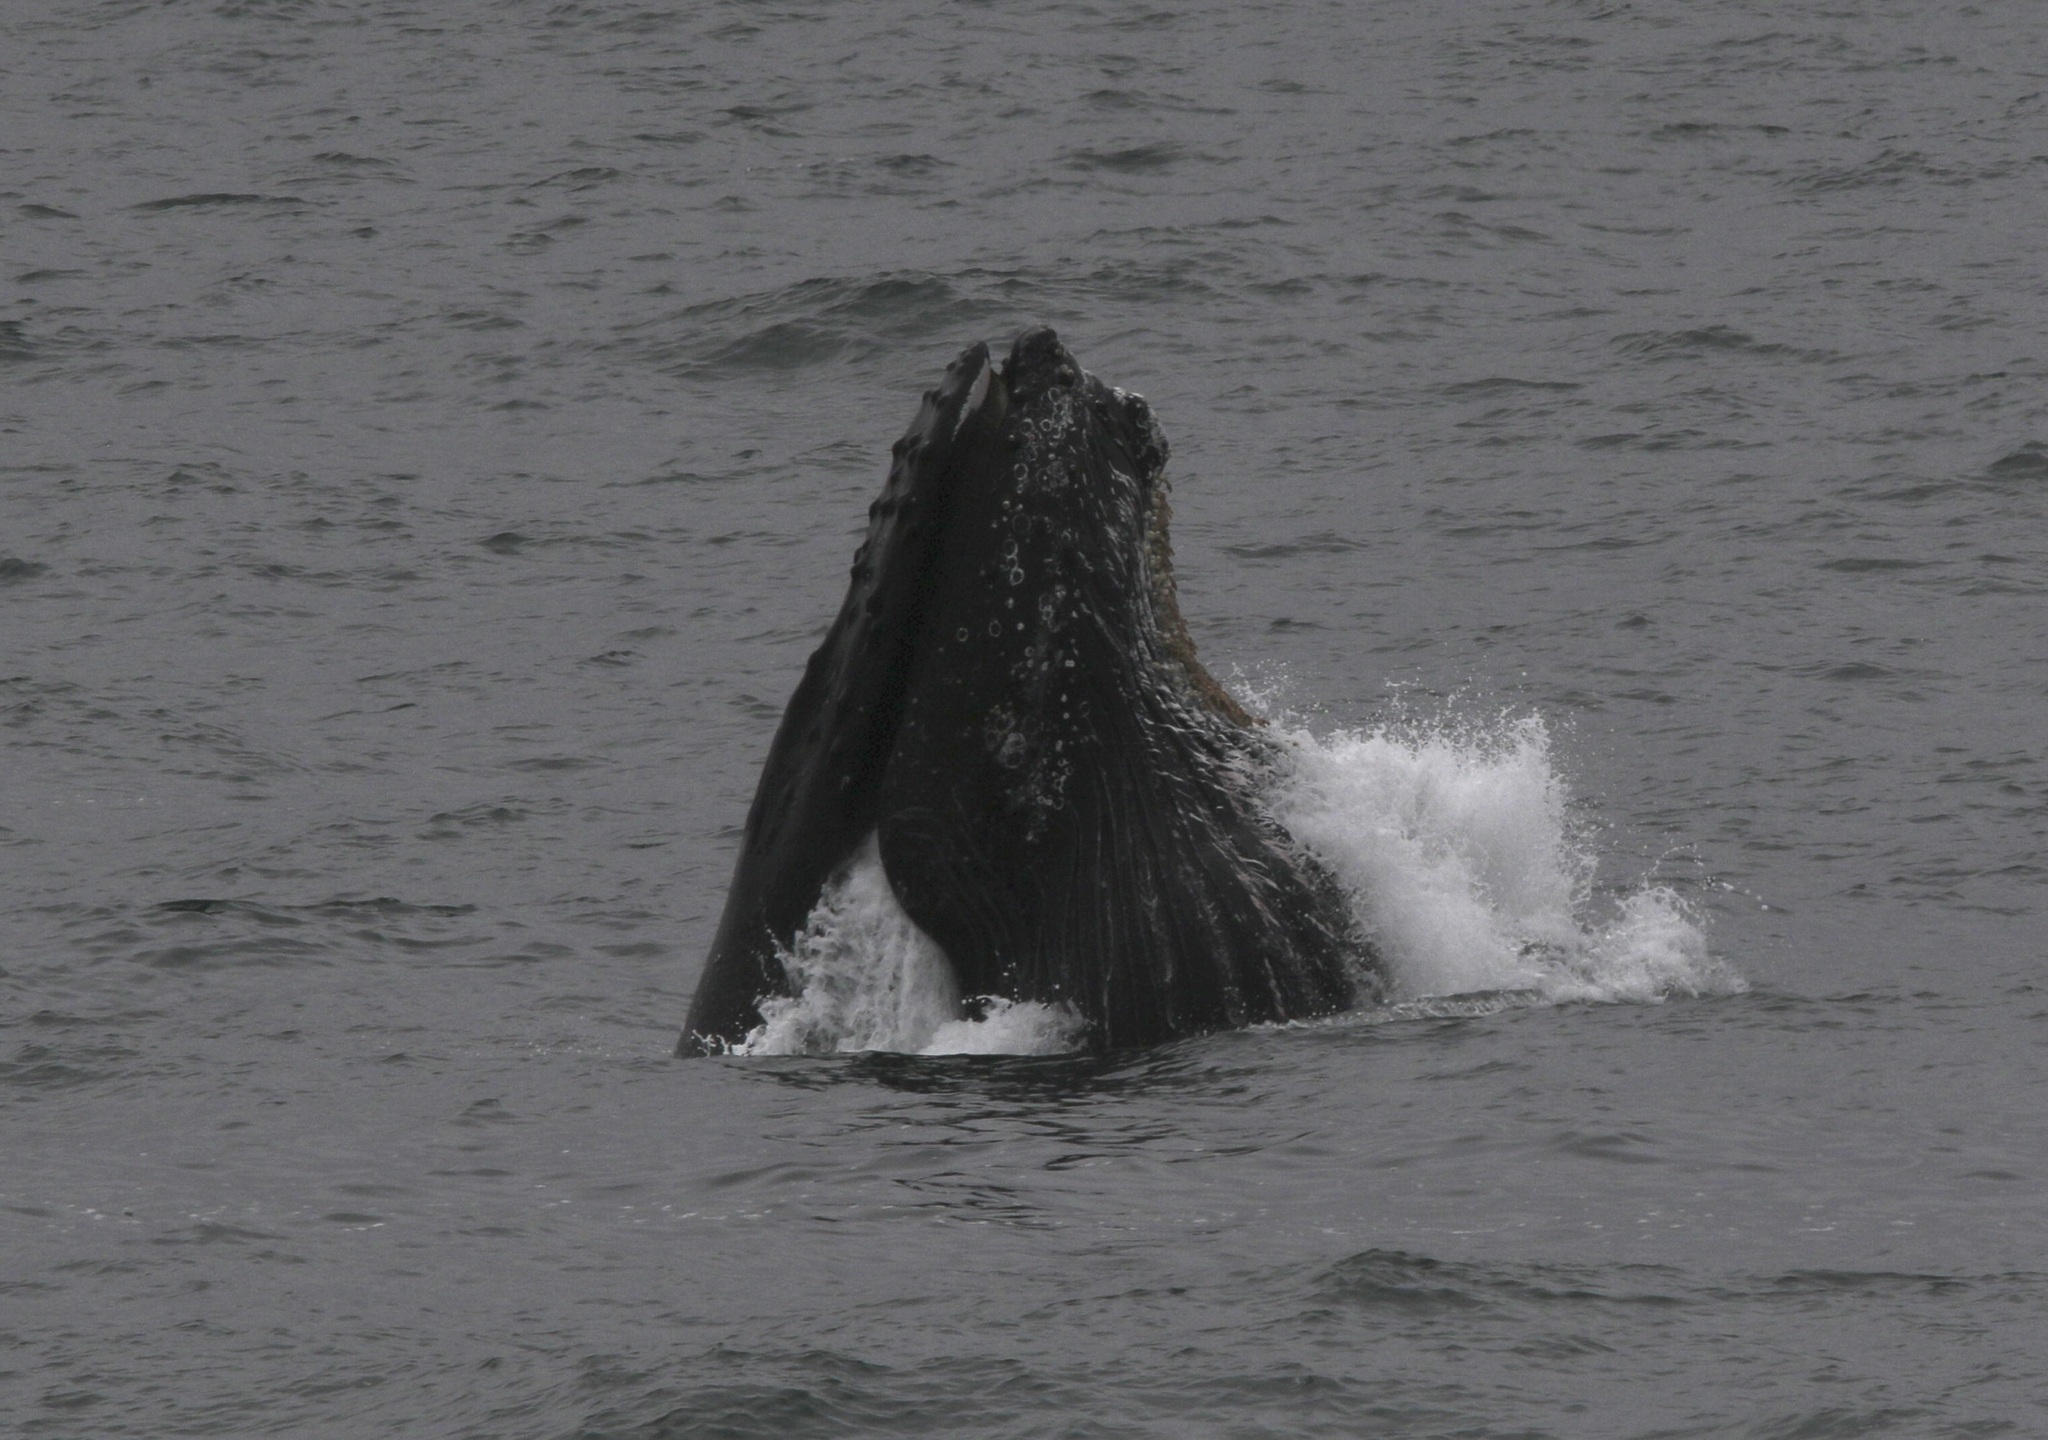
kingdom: Animalia
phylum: Chordata
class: Mammalia
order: Cetacea
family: Balaenopteridae
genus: Megaptera
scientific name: Megaptera novaeangliae
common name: Humpback whale
